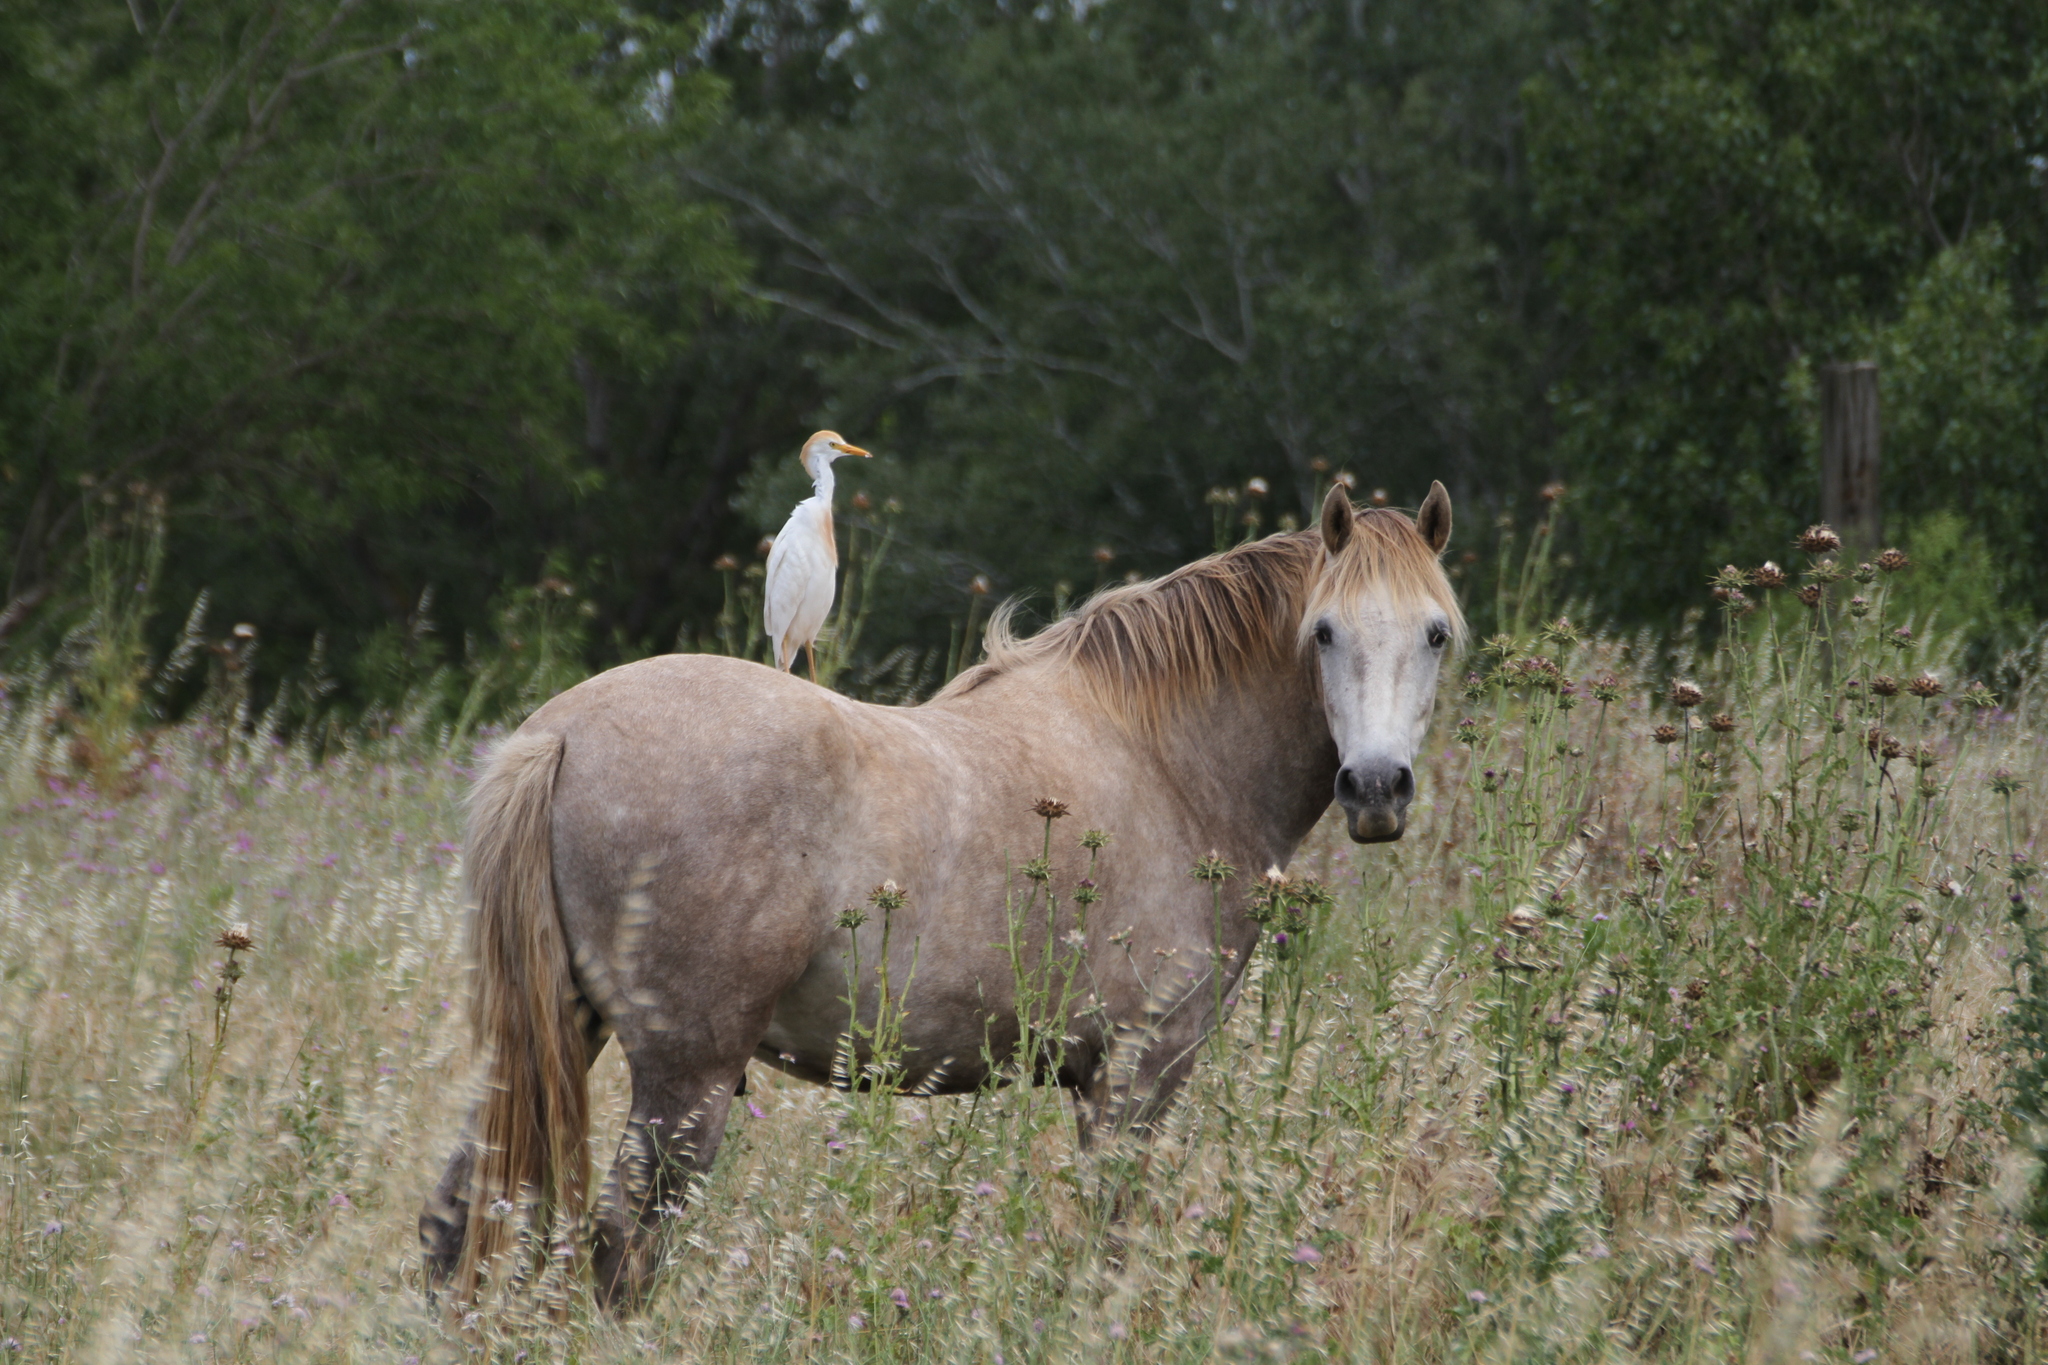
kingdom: Animalia
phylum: Chordata
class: Aves
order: Pelecaniformes
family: Ardeidae
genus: Bubulcus
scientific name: Bubulcus ibis
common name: Cattle egret
